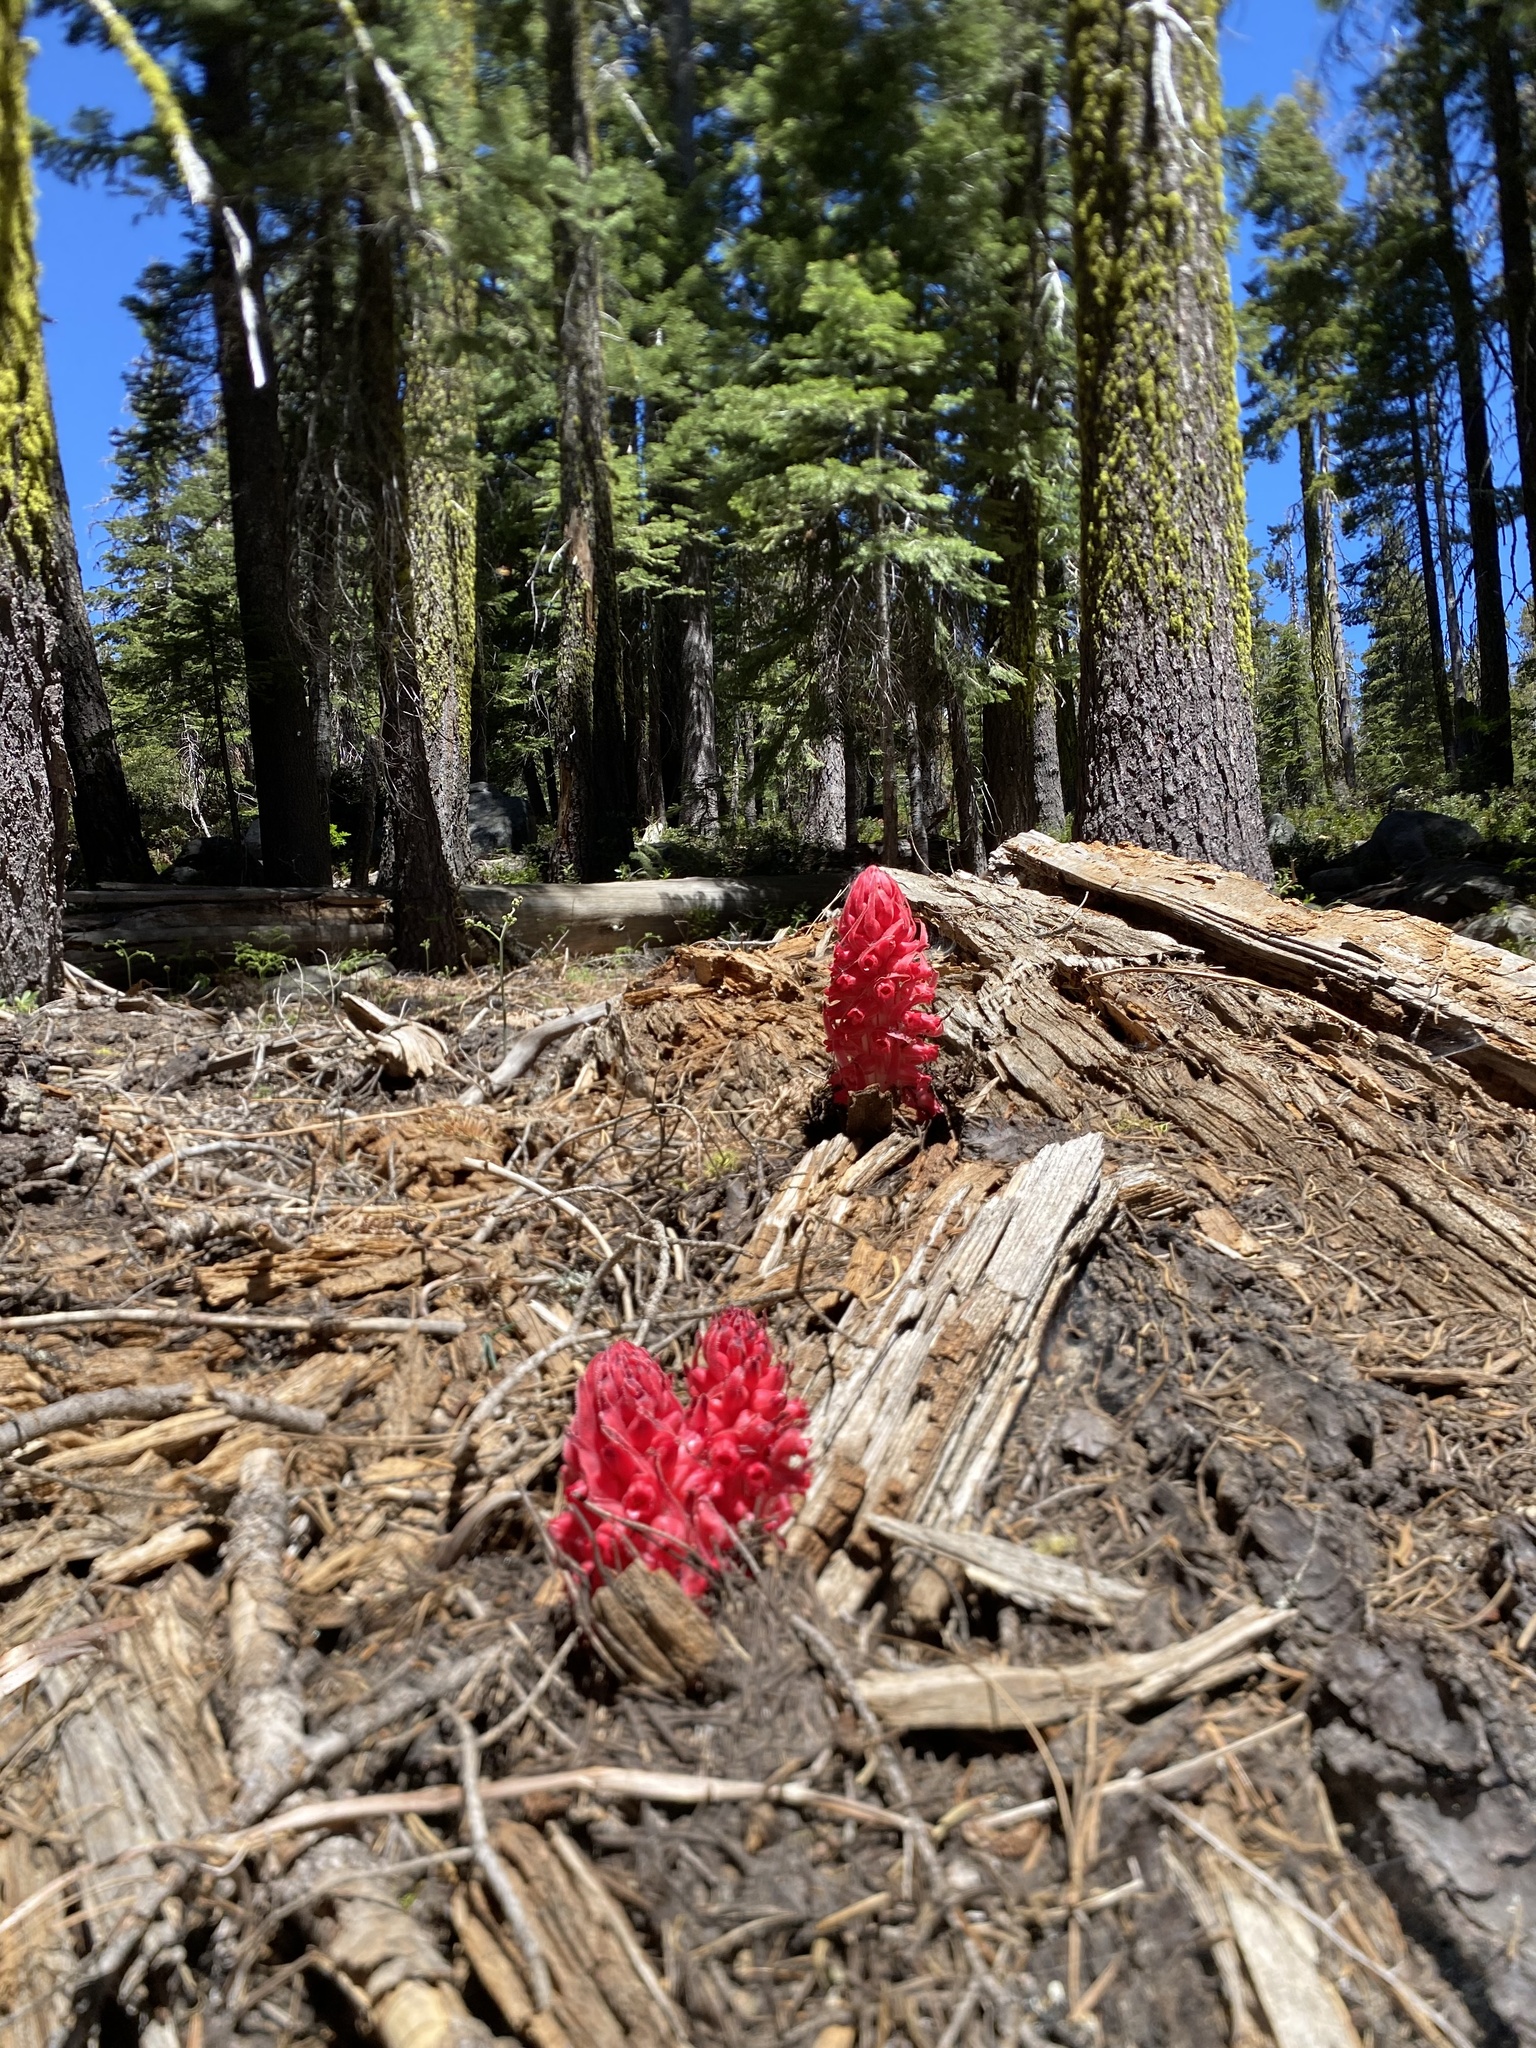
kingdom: Plantae
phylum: Tracheophyta
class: Magnoliopsida
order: Ericales
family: Ericaceae
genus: Sarcodes
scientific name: Sarcodes sanguinea
